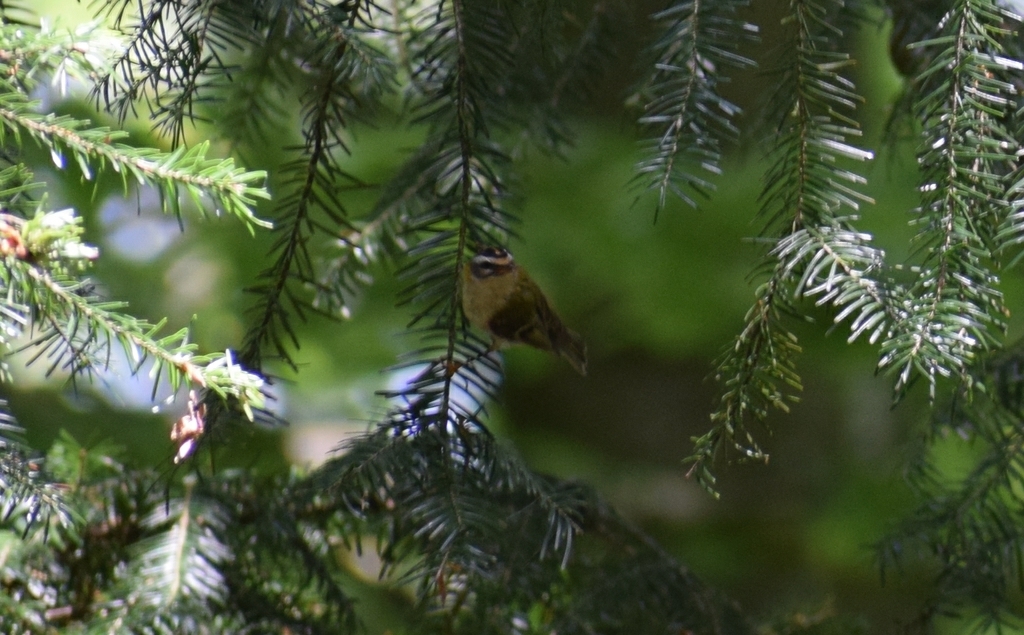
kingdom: Animalia
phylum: Chordata
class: Aves
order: Passeriformes
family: Regulidae
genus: Regulus
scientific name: Regulus ignicapilla
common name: Firecrest
